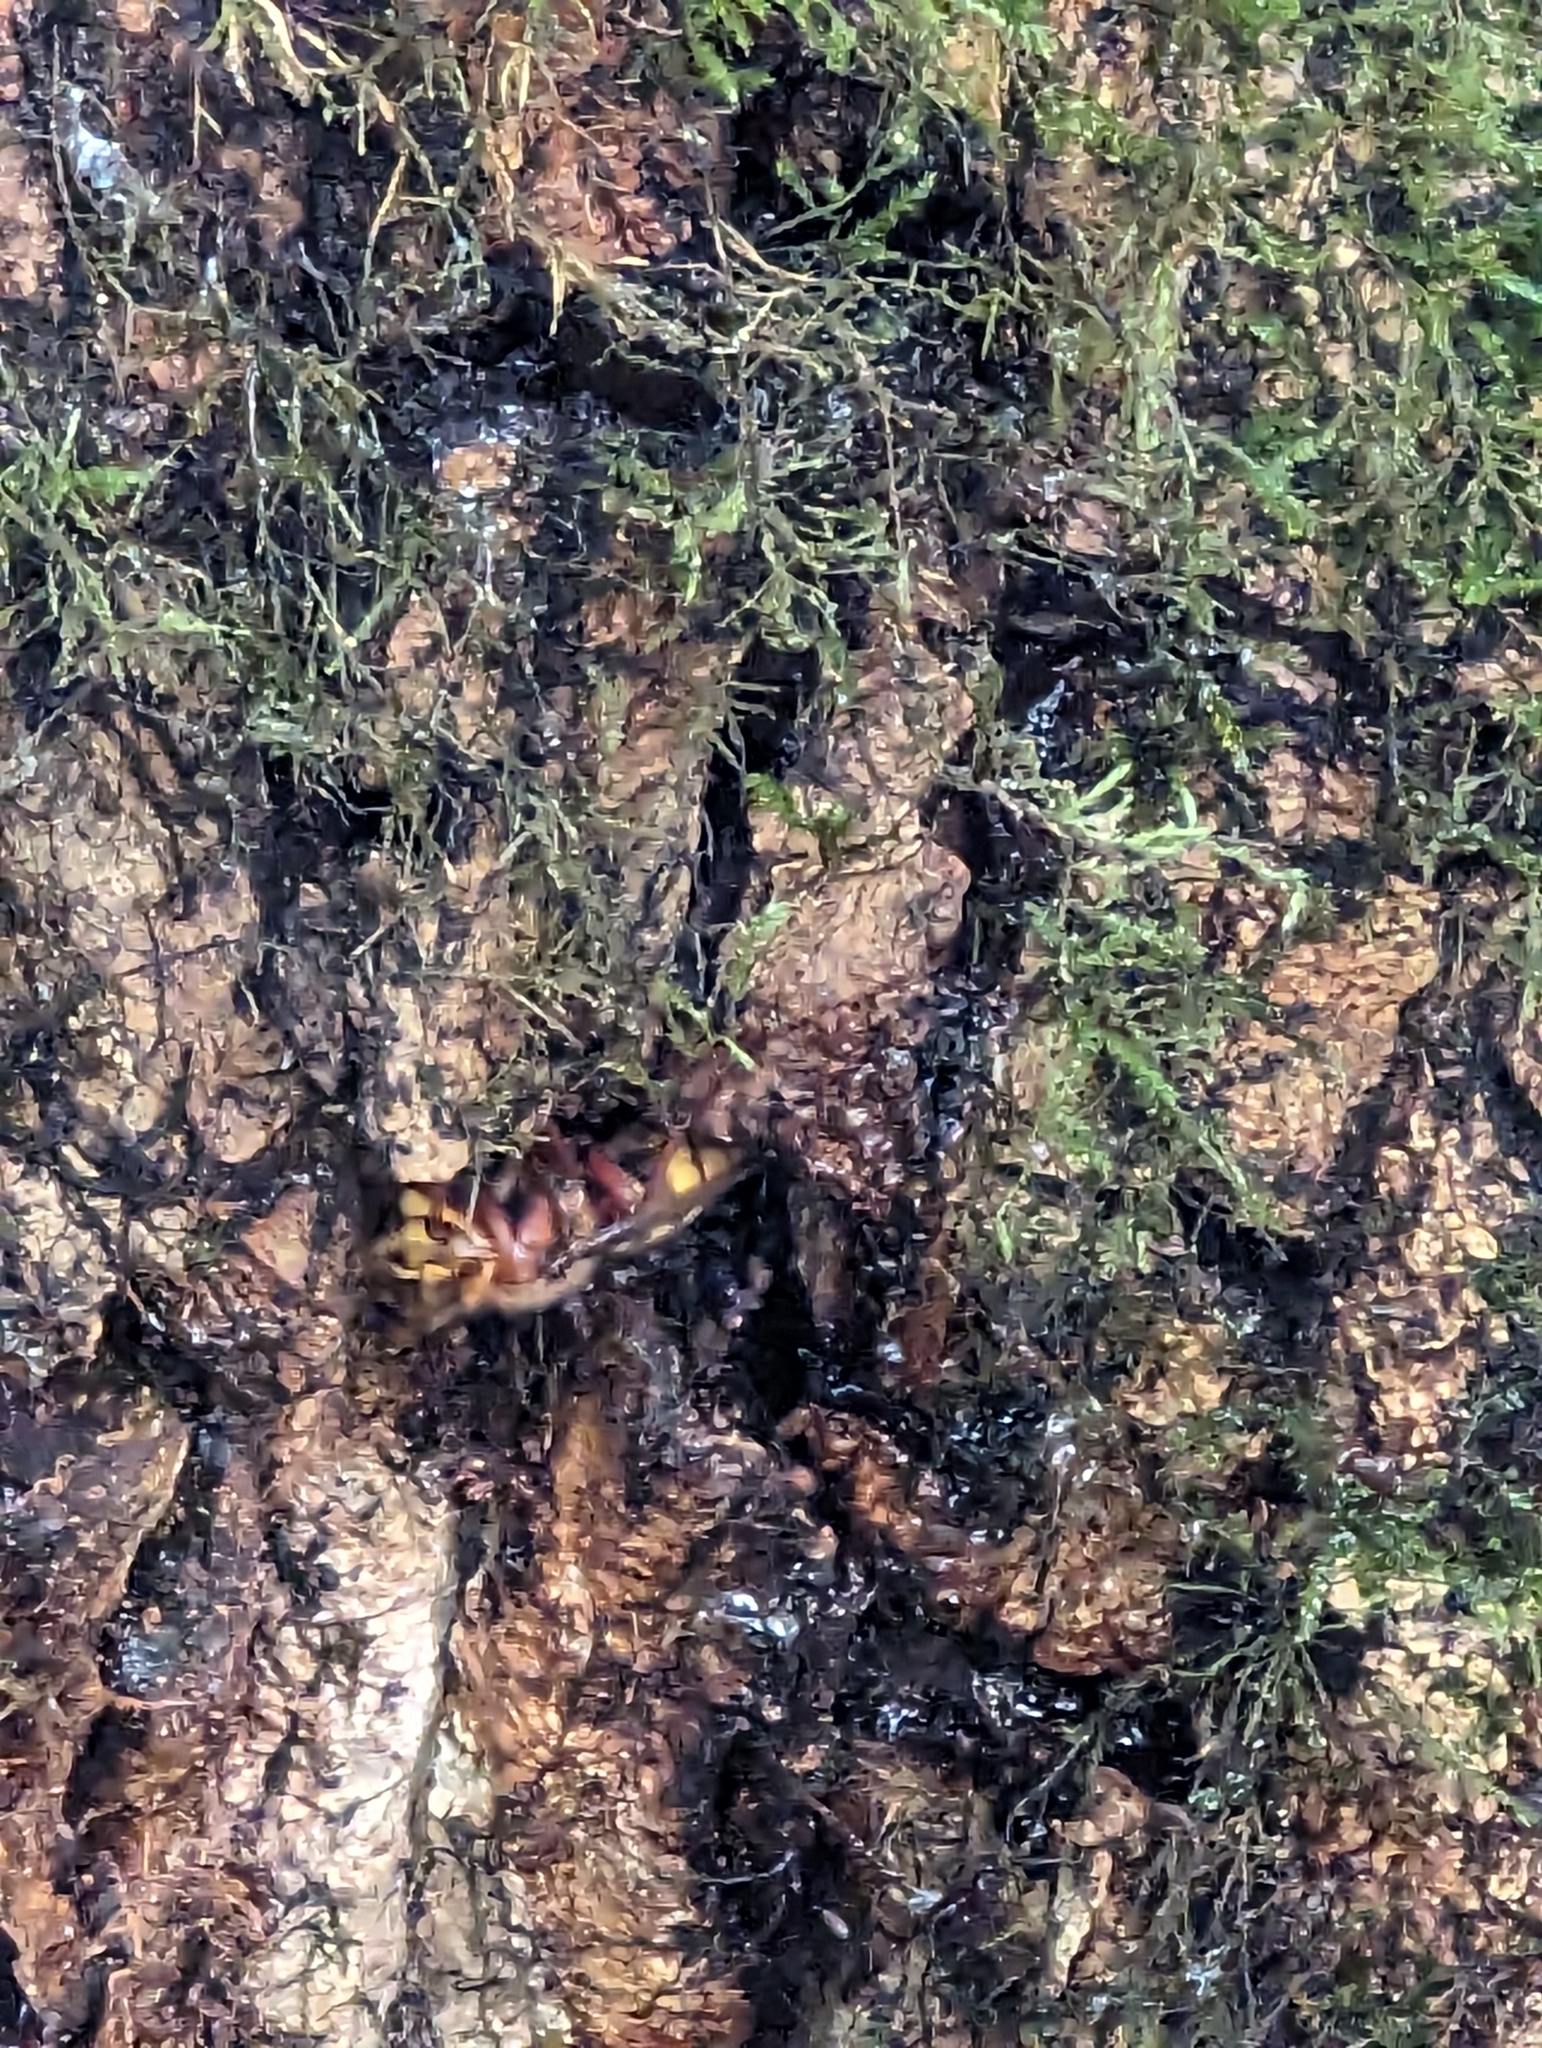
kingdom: Animalia
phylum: Arthropoda
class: Insecta
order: Hymenoptera
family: Vespidae
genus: Vespa
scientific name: Vespa crabro
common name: Hornet
